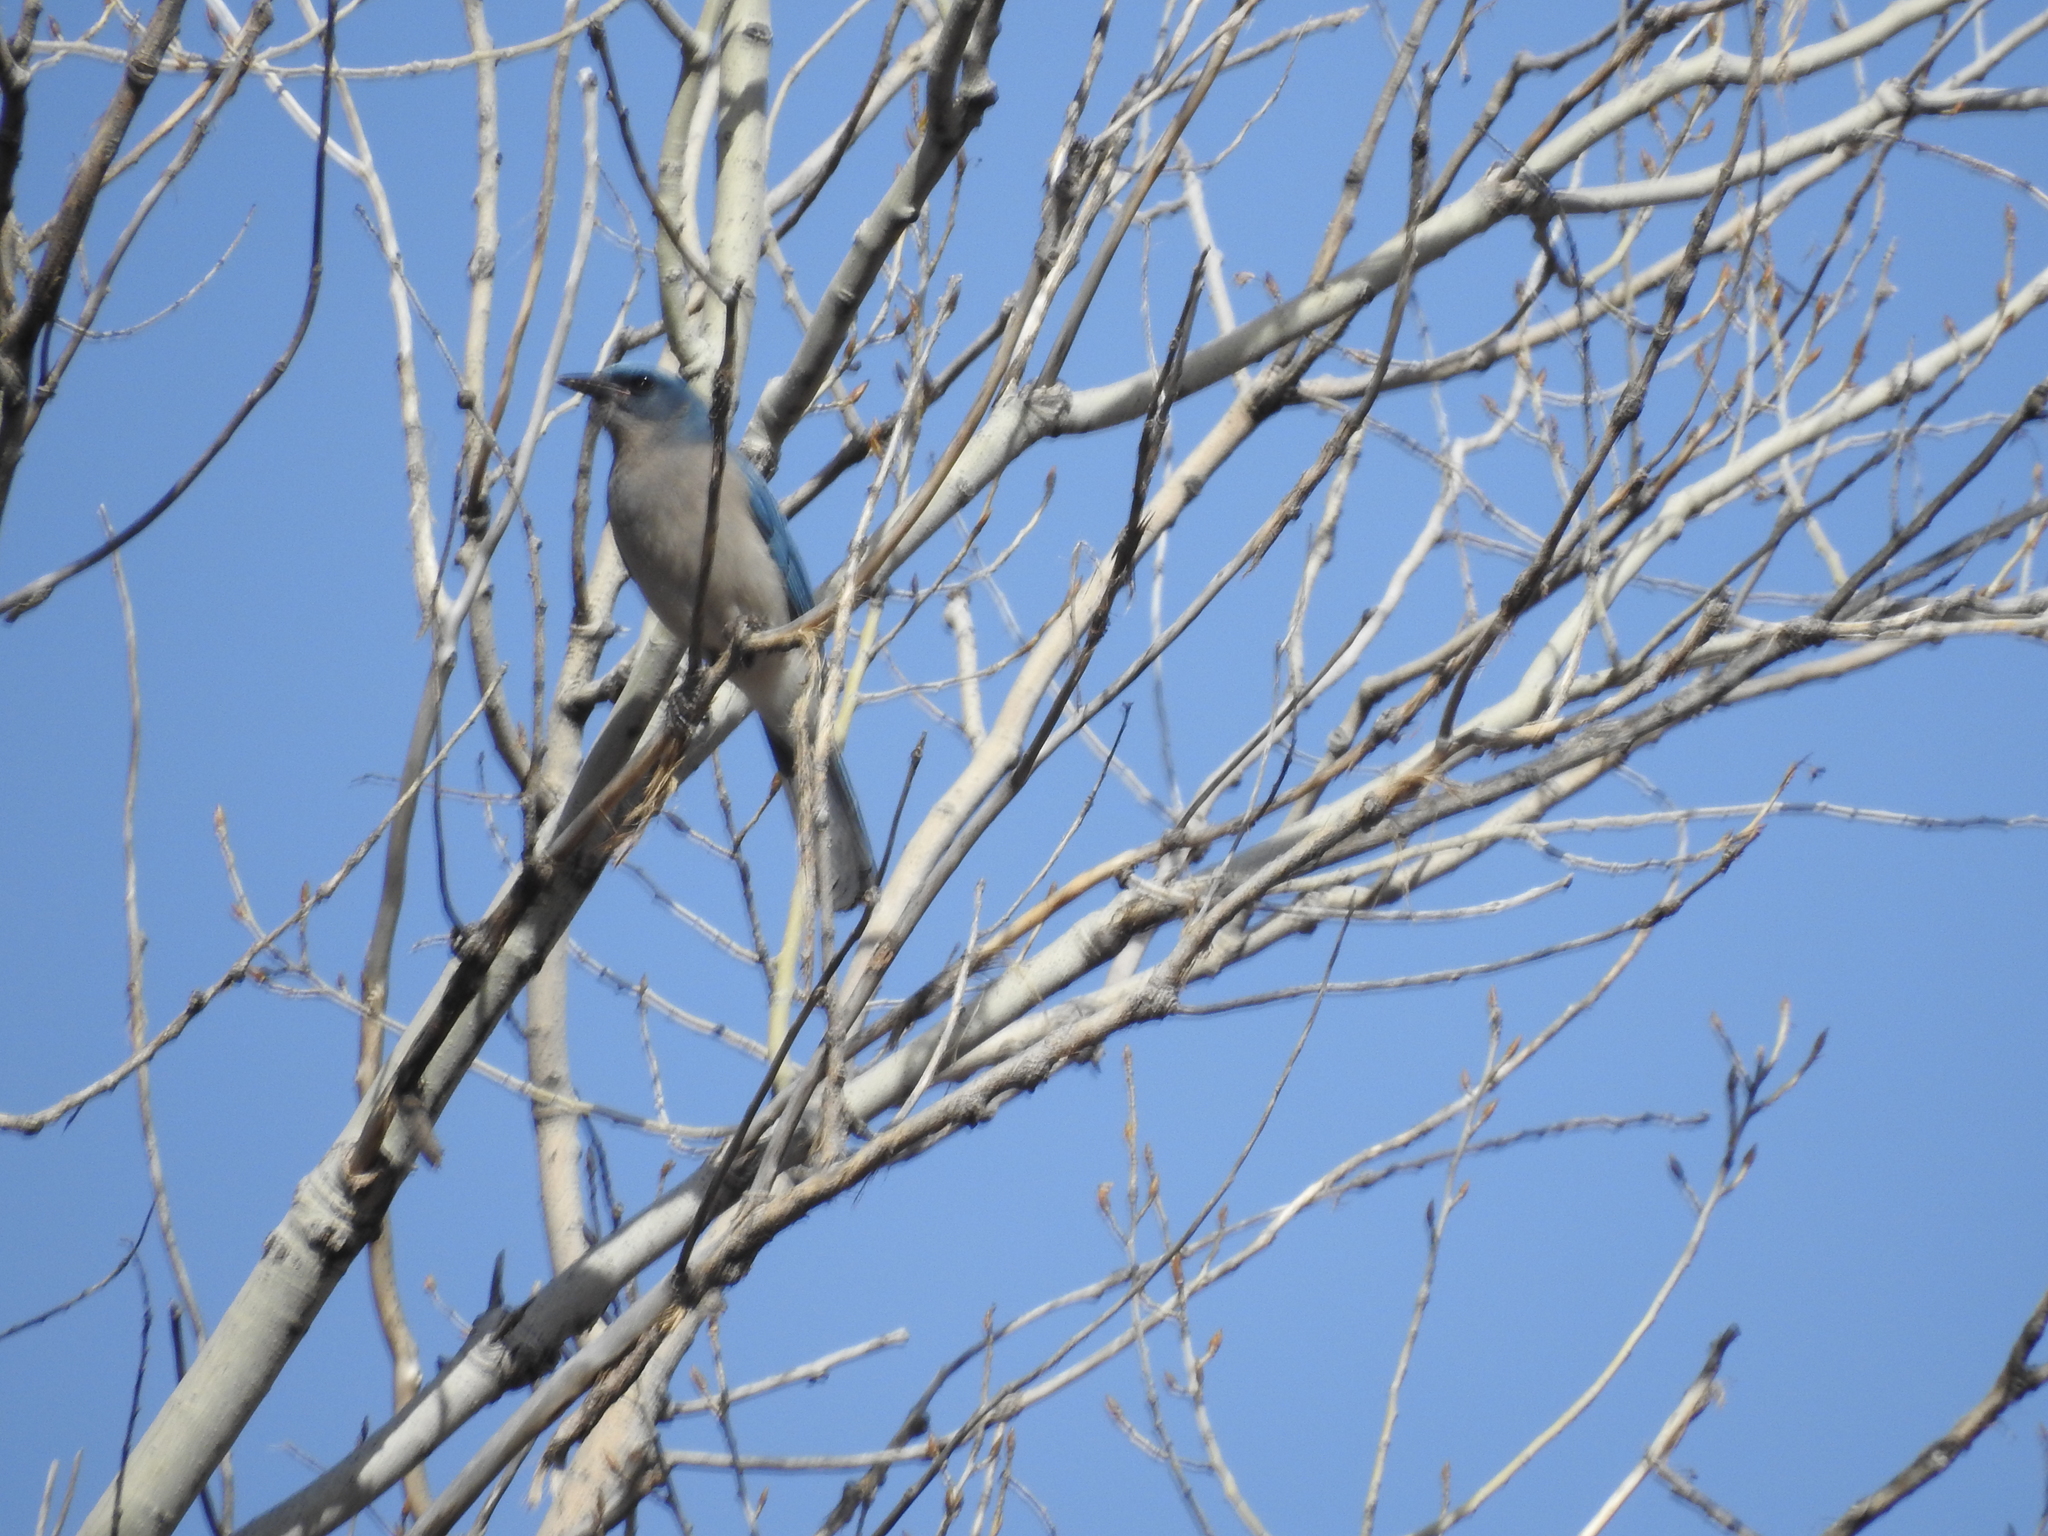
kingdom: Animalia
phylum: Chordata
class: Aves
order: Passeriformes
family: Corvidae
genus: Aphelocoma
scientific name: Aphelocoma wollweberi
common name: Mexican jay
